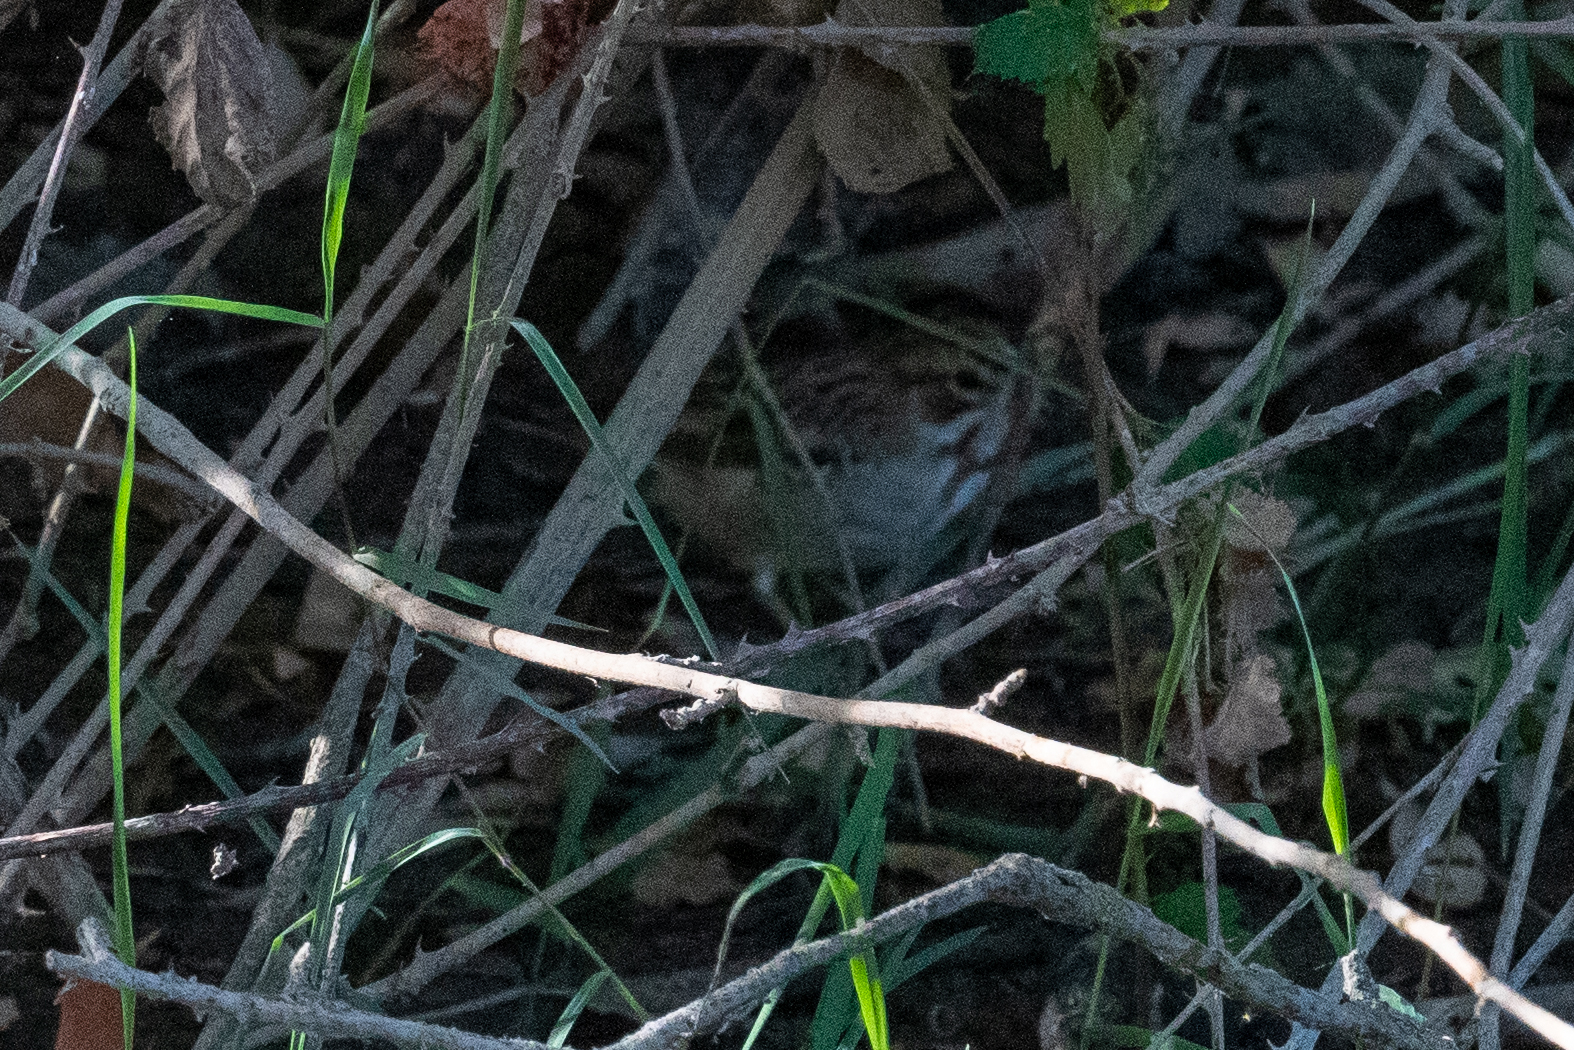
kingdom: Animalia
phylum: Chordata
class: Aves
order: Passeriformes
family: Passerellidae
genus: Chondestes
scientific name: Chondestes grammacus
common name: Lark sparrow
